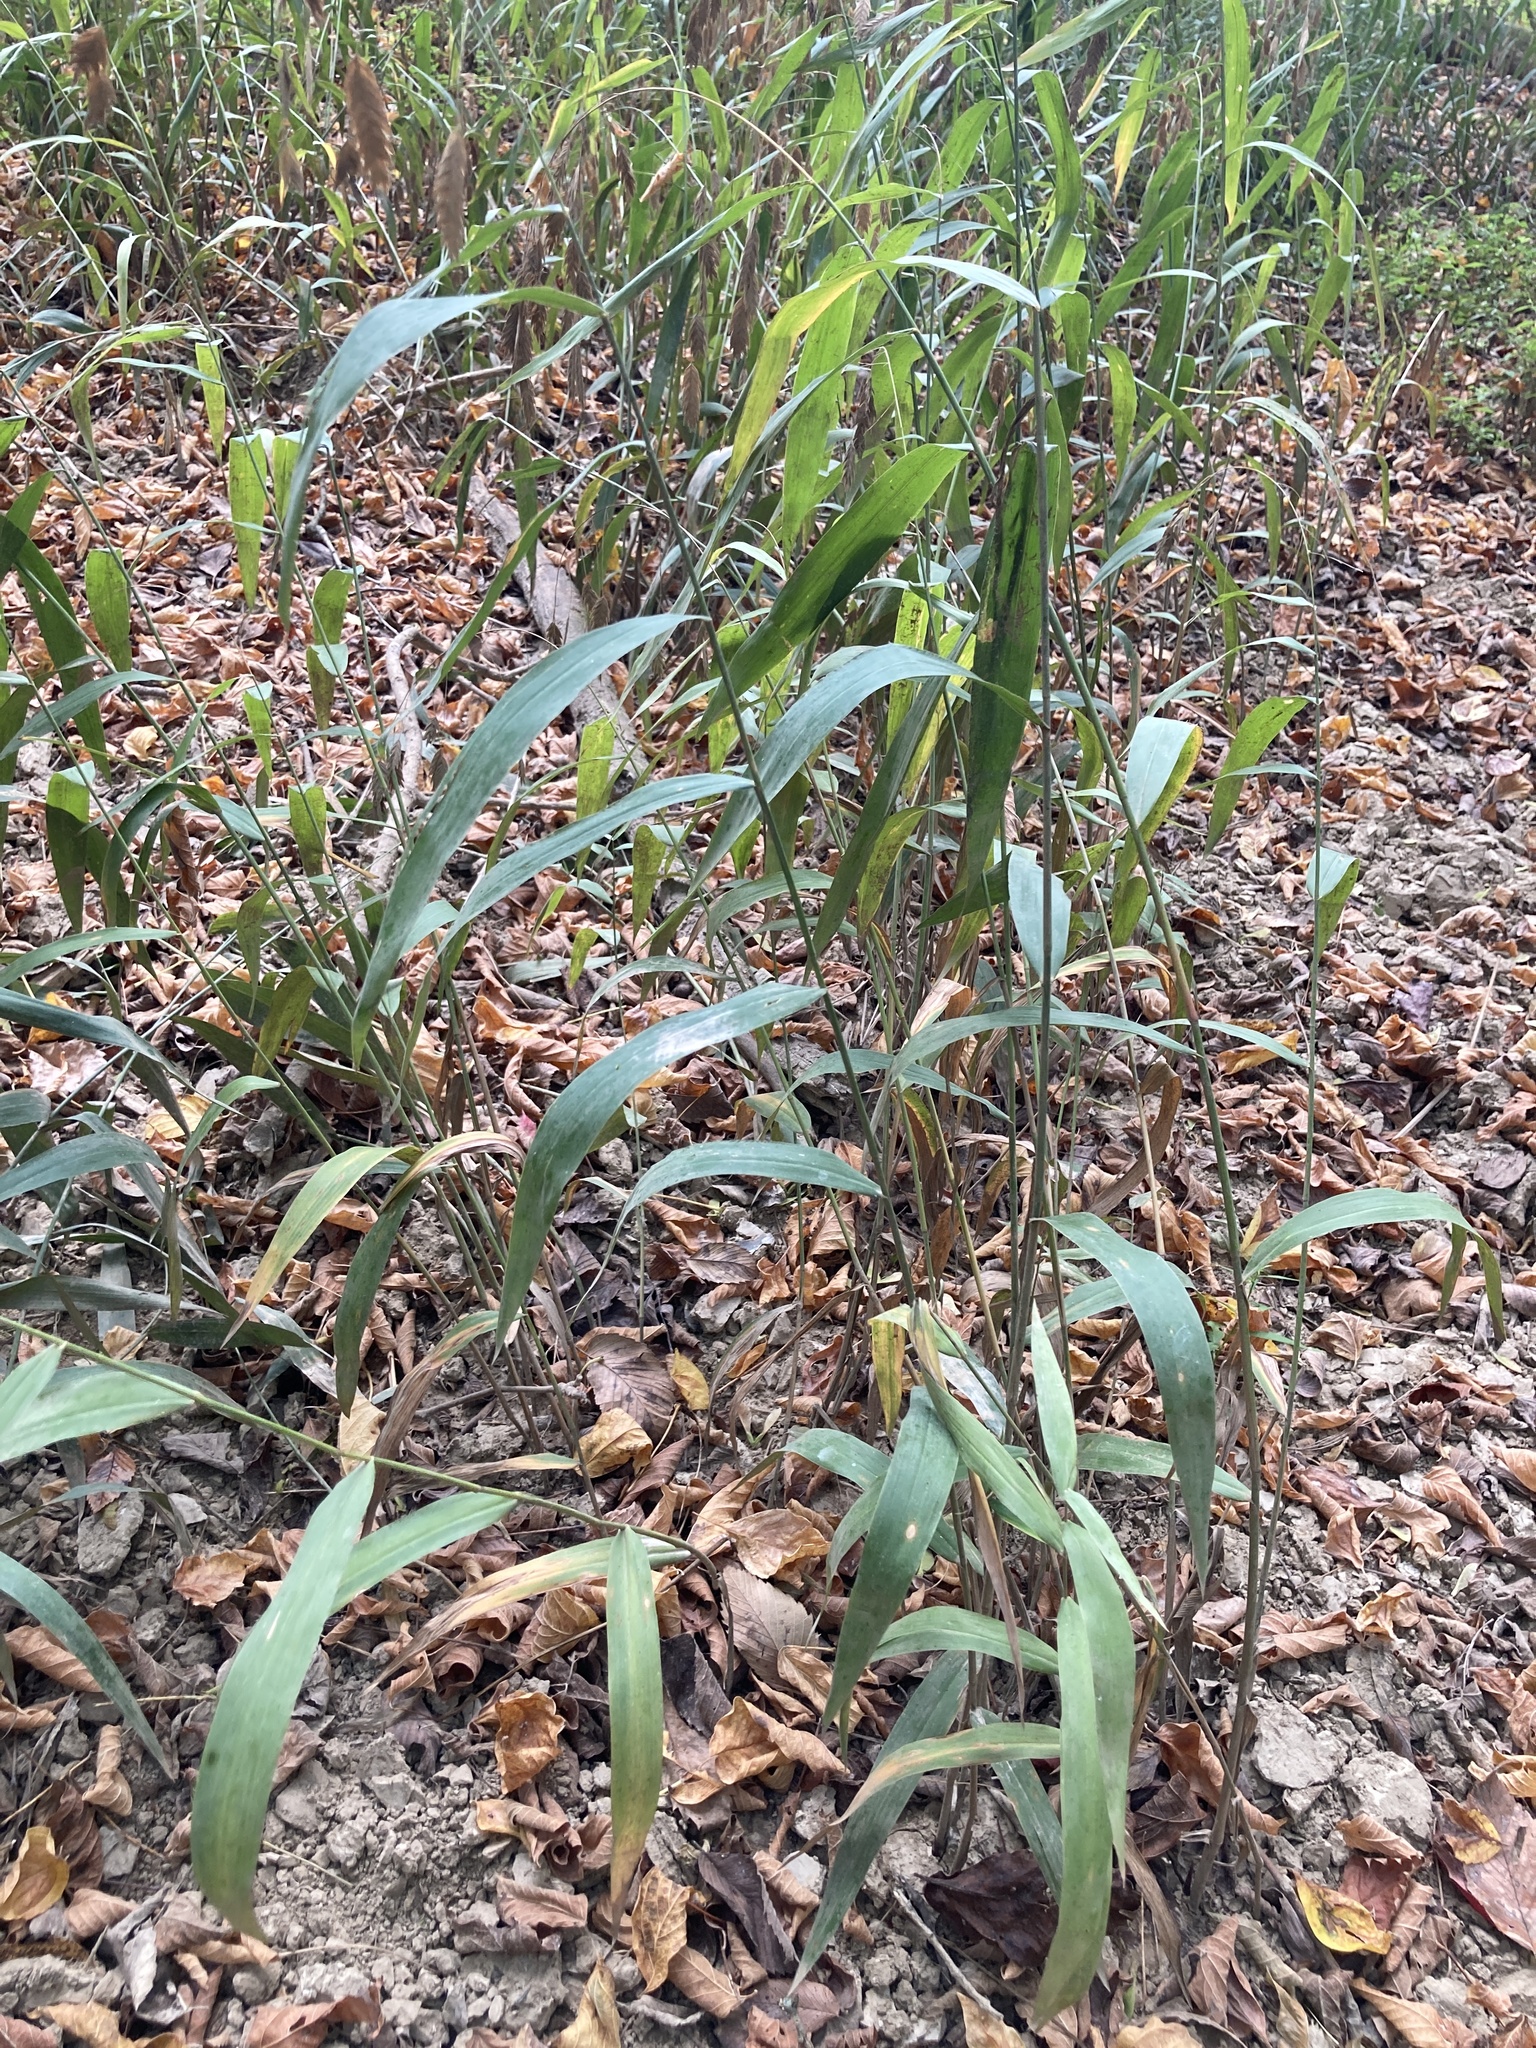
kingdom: Plantae
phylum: Tracheophyta
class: Liliopsida
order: Poales
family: Poaceae
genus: Chasmanthium
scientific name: Chasmanthium latifolium
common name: Broad-leaved chasmanthium
